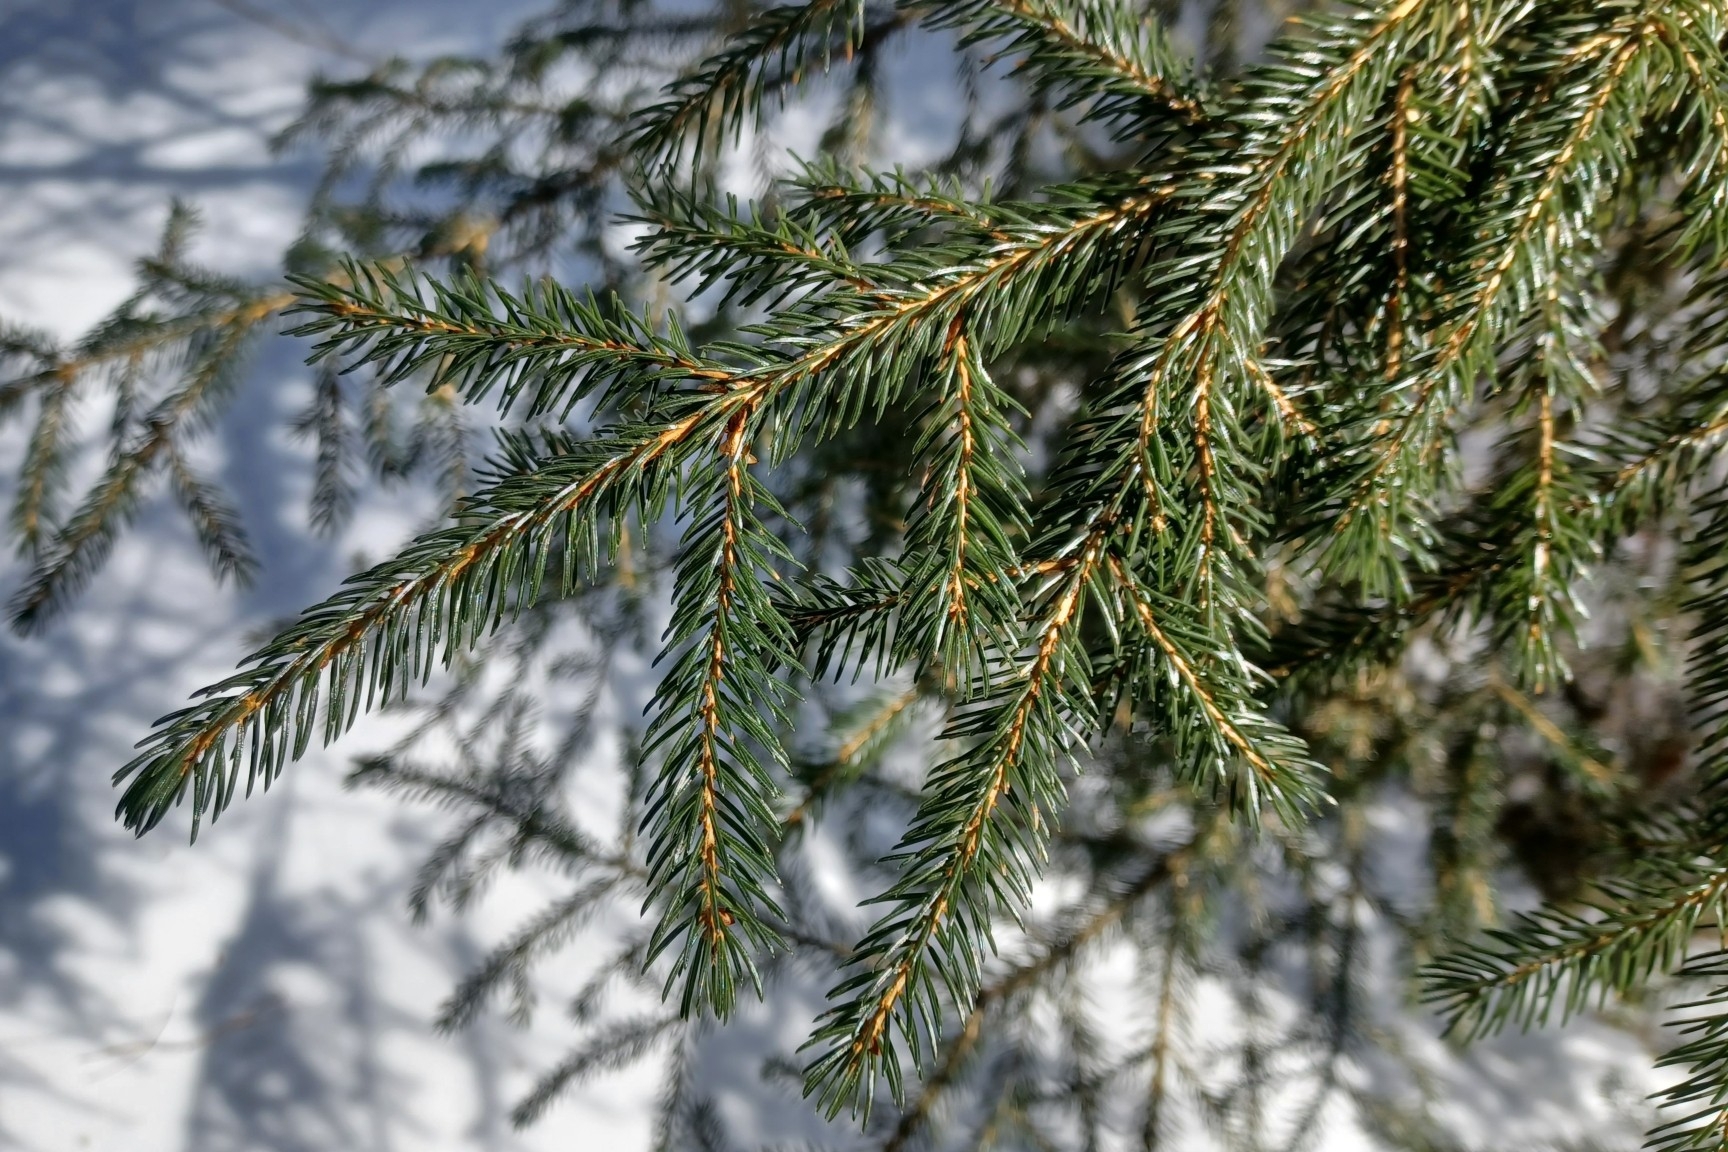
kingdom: Plantae
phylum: Tracheophyta
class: Pinopsida
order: Pinales
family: Pinaceae
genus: Picea
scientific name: Picea rubens
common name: Red spruce
